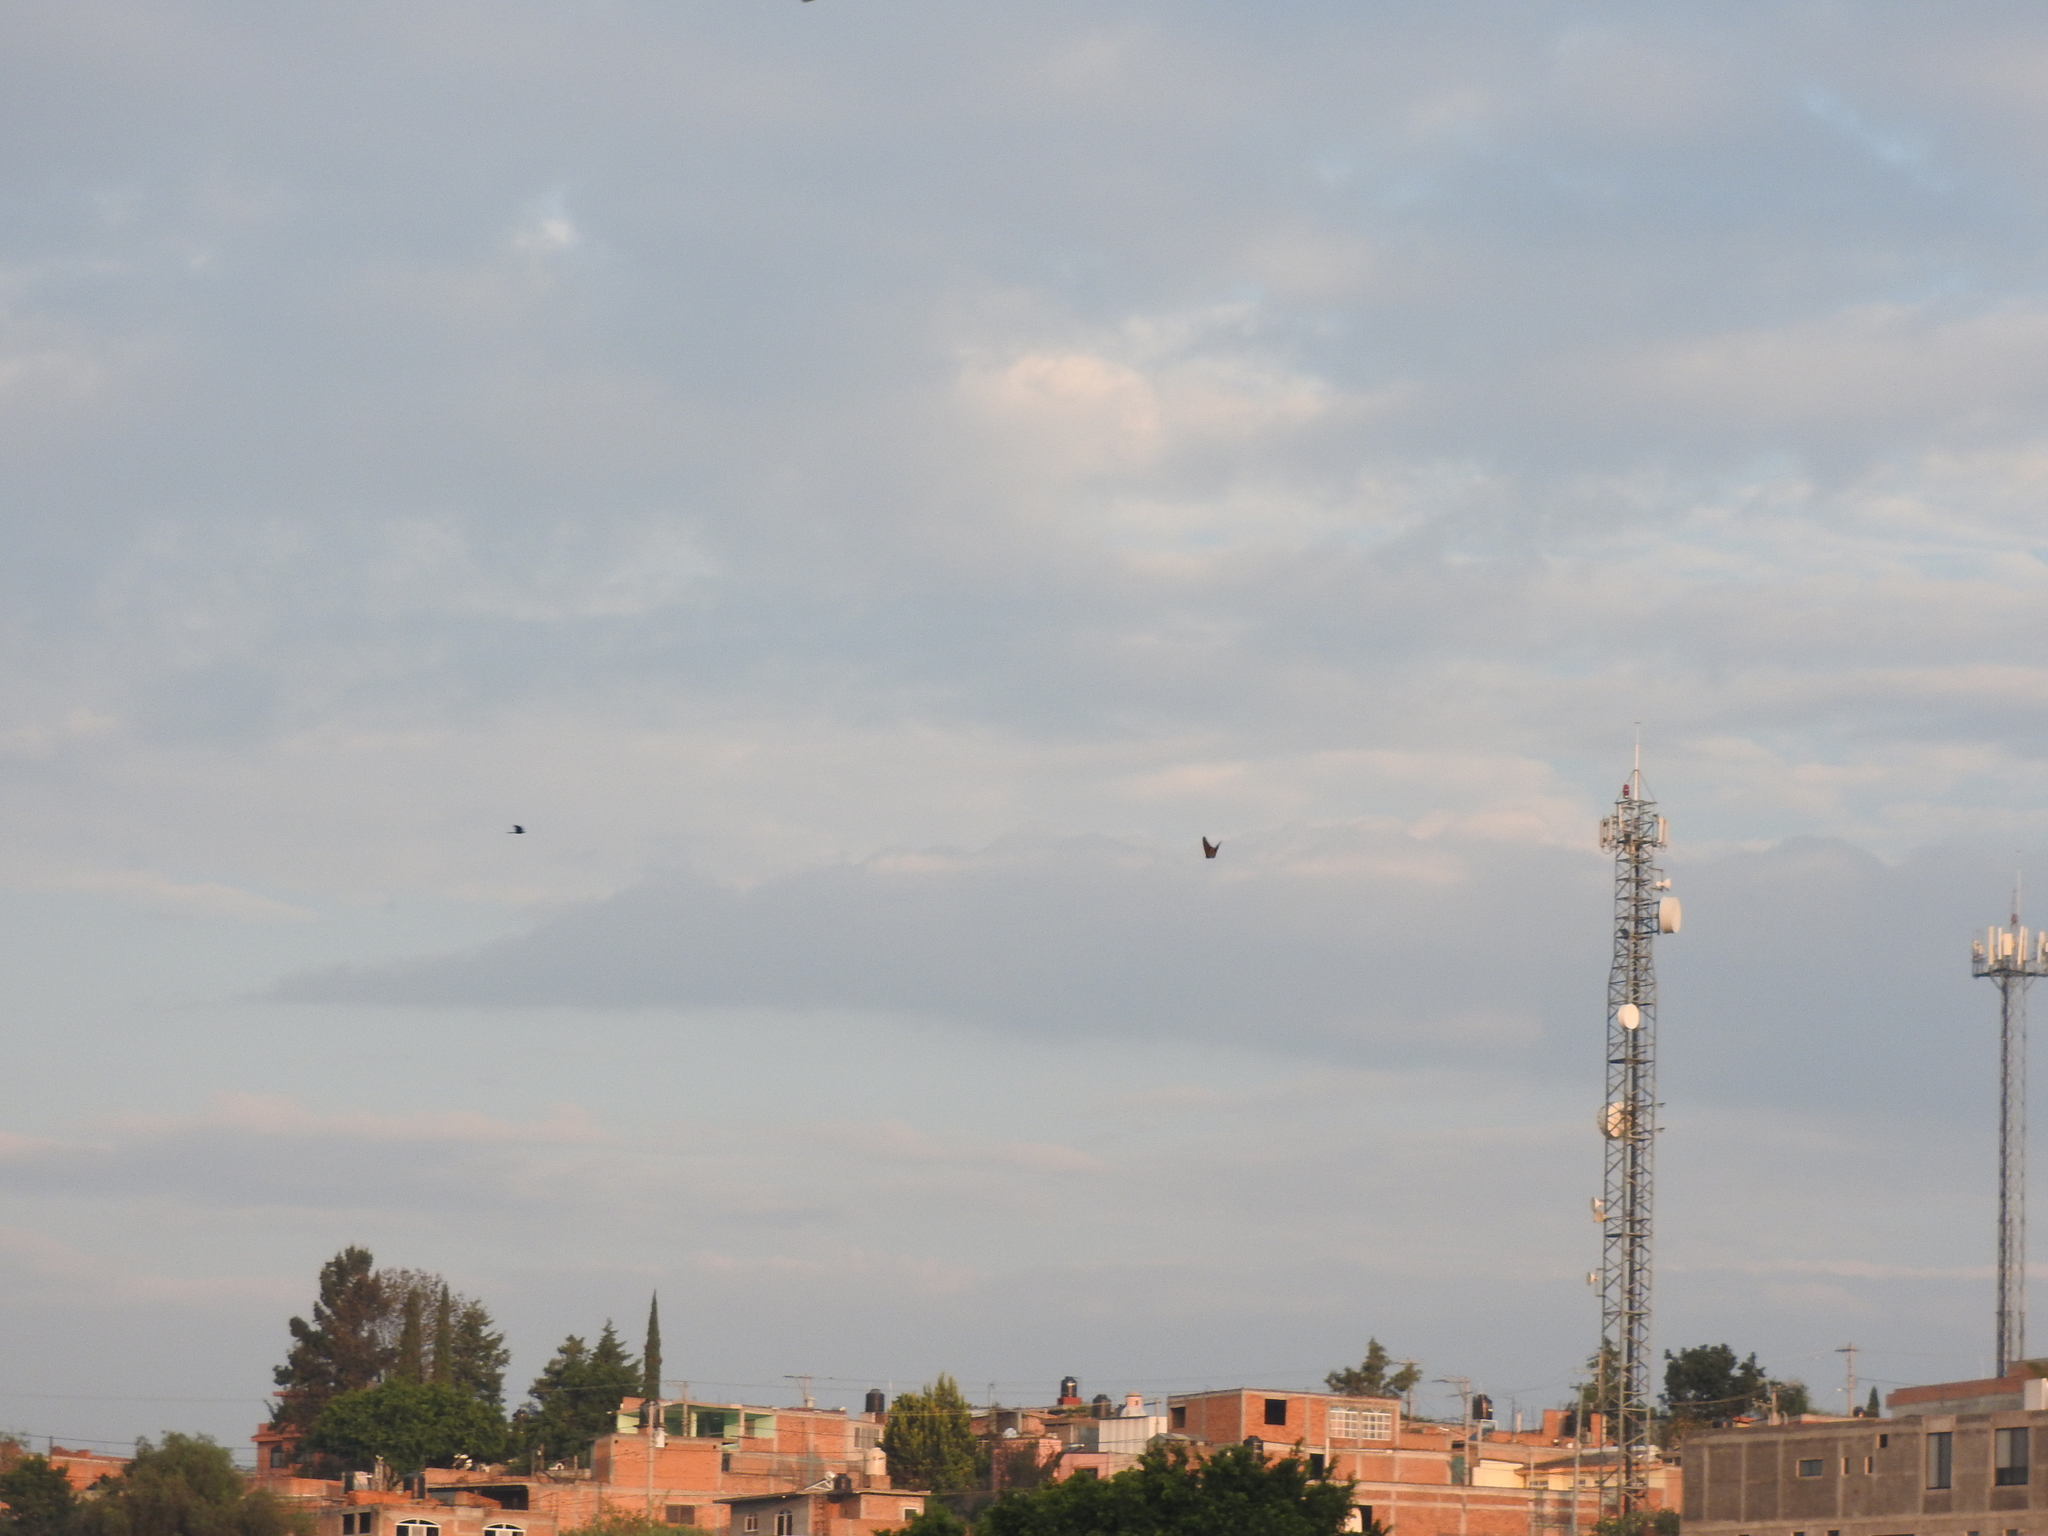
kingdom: Animalia
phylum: Arthropoda
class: Insecta
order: Lepidoptera
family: Nymphalidae
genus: Danaus
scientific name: Danaus plexippus
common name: Monarch
